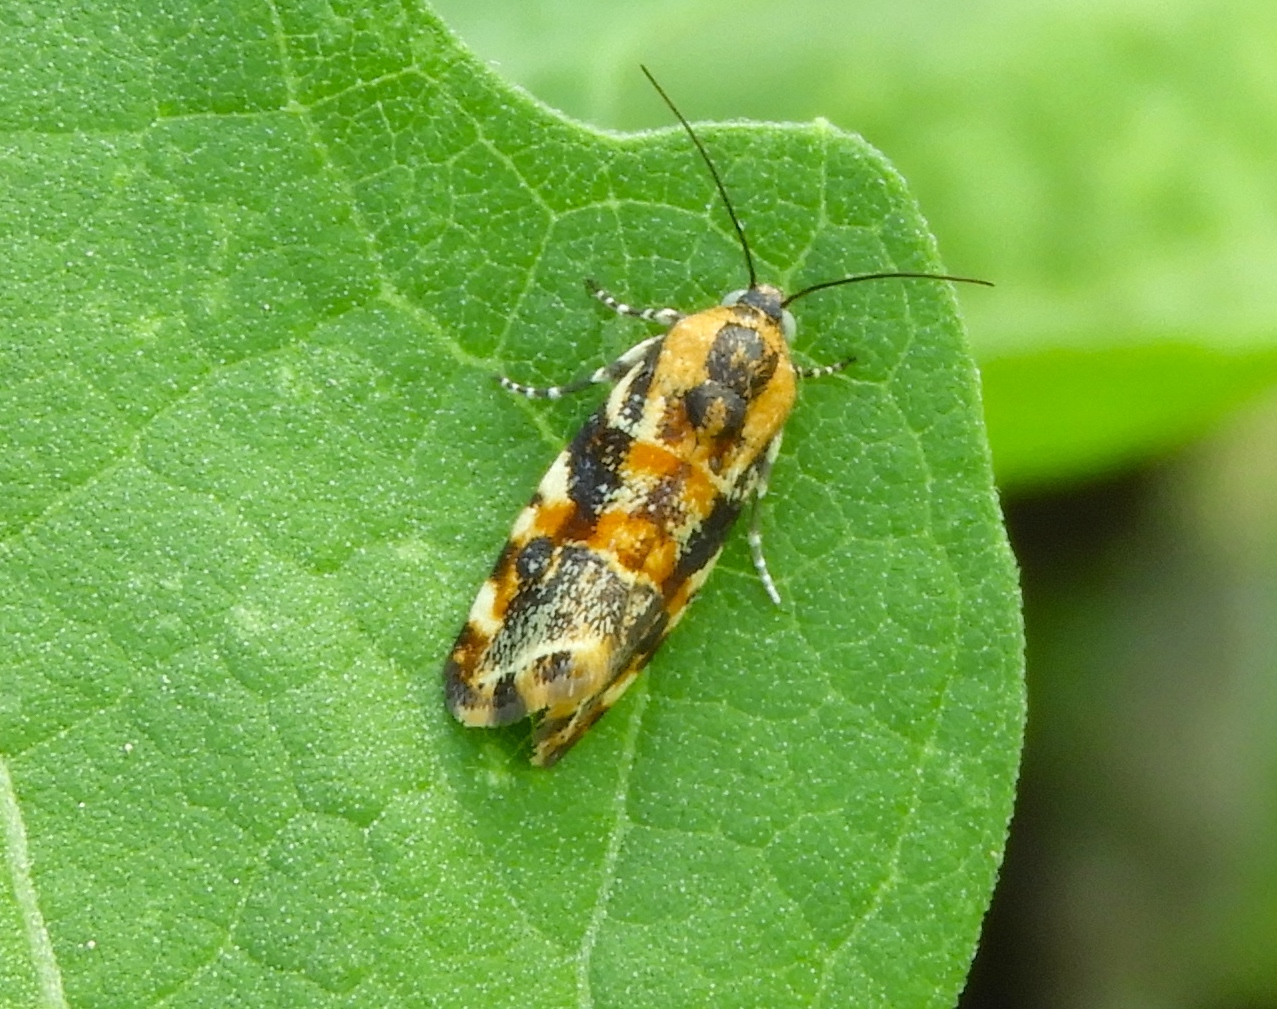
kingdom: Animalia
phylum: Arthropoda
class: Insecta
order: Lepidoptera
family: Noctuidae
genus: Spragueia
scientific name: Spragueia jaguaralis
